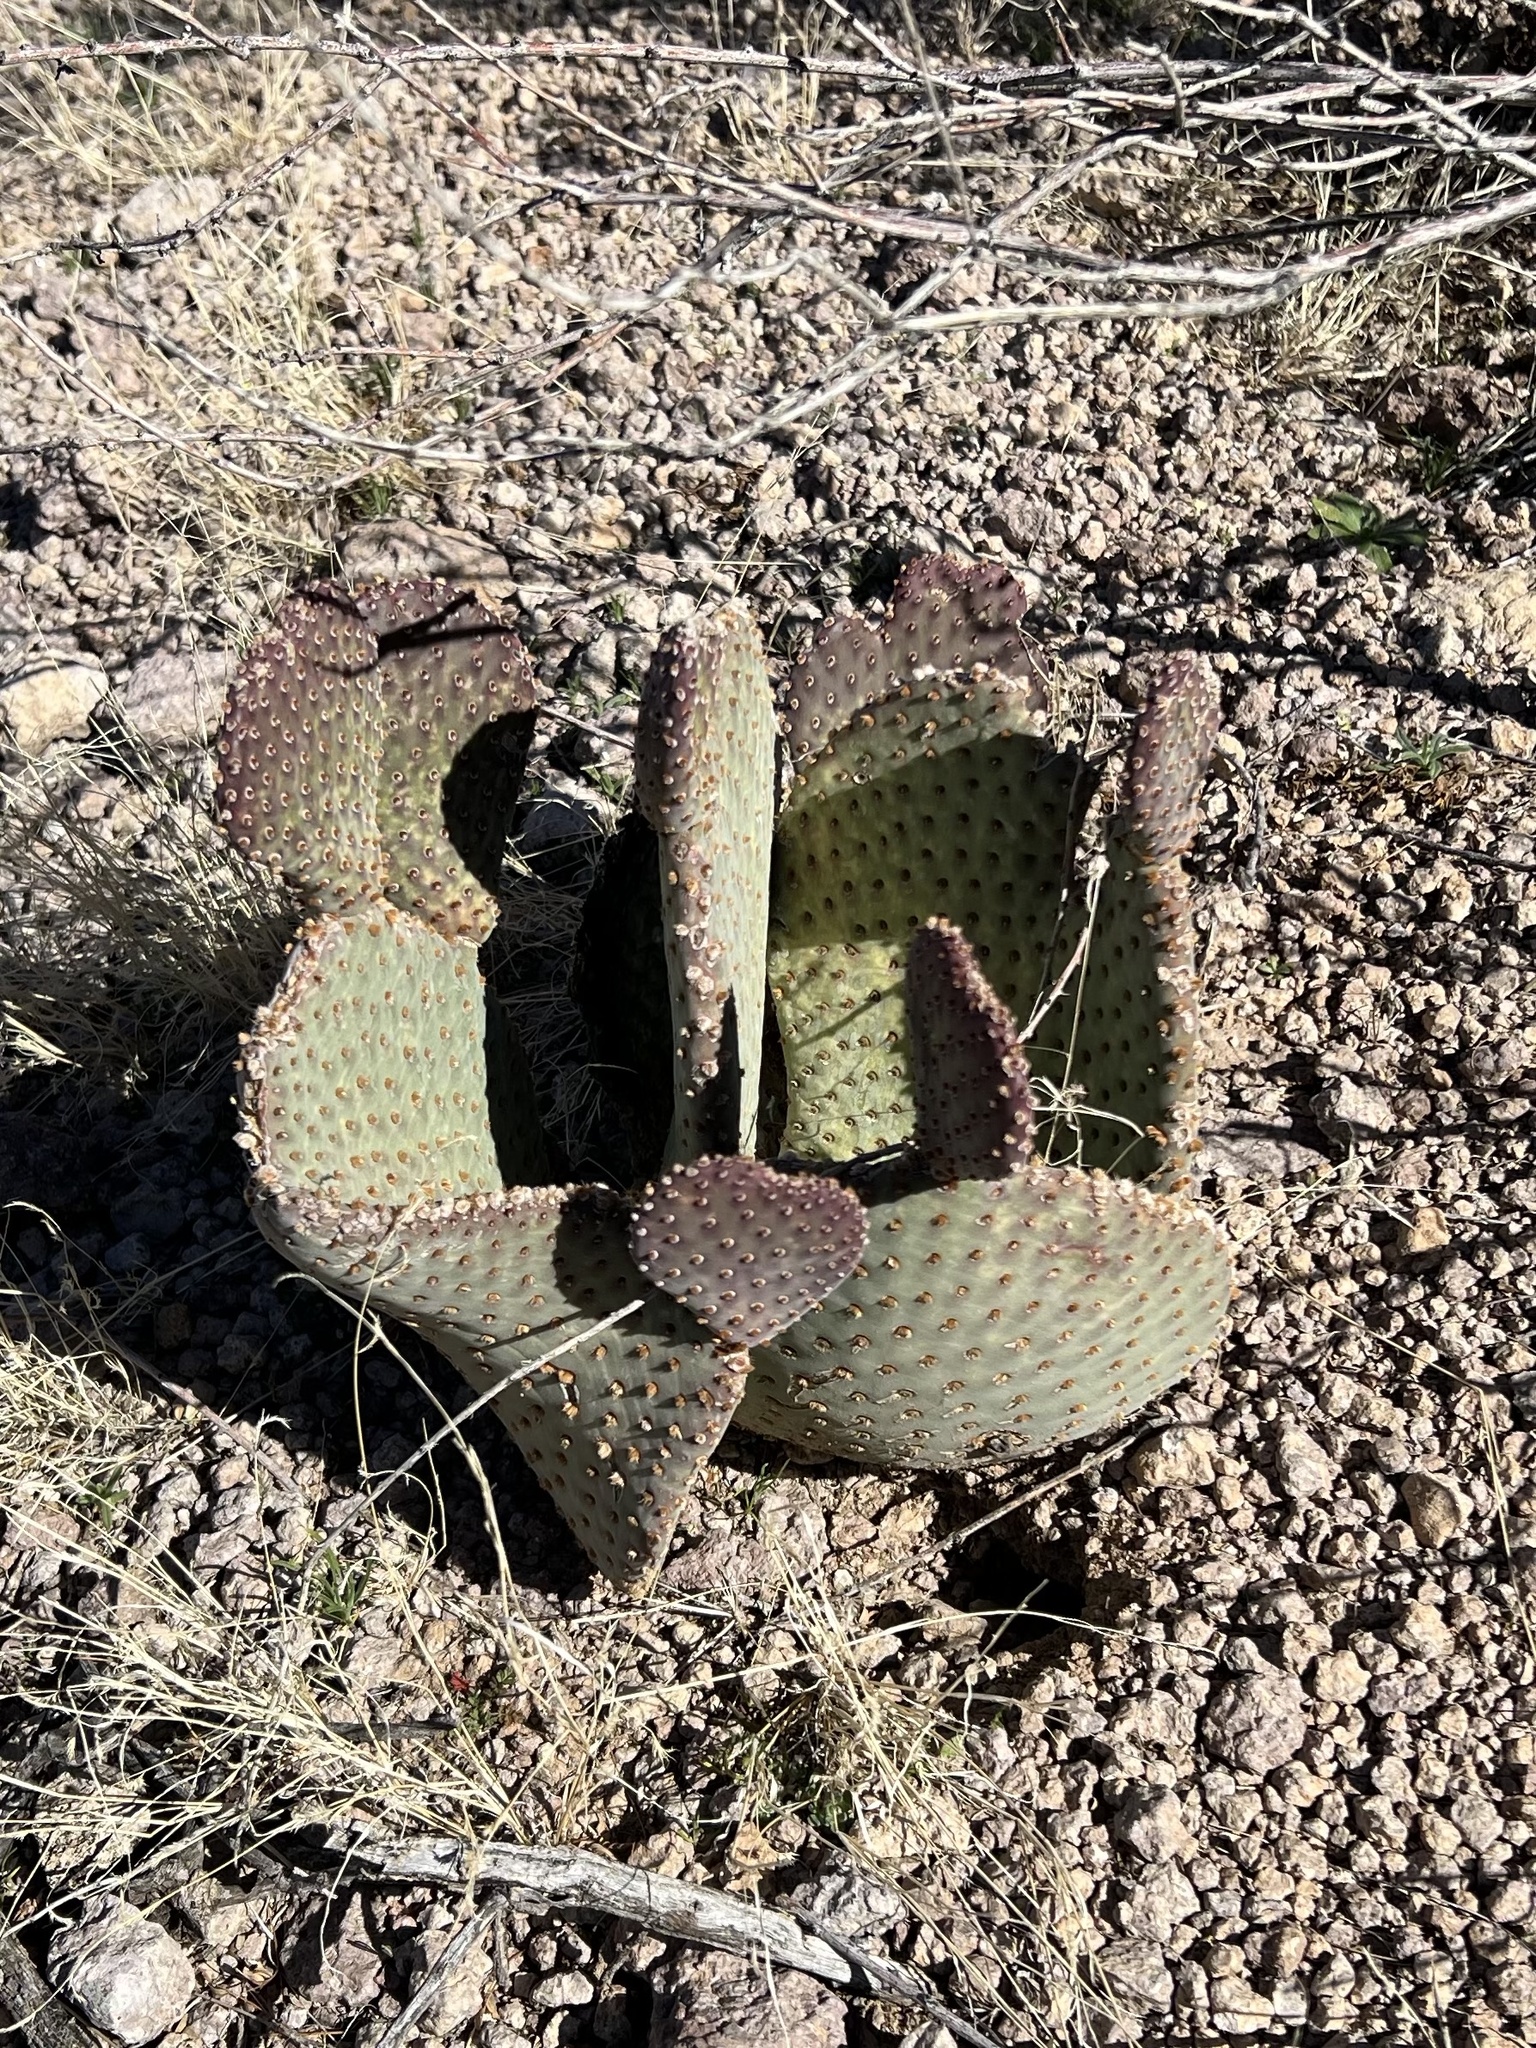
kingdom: Plantae
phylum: Tracheophyta
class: Magnoliopsida
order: Caryophyllales
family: Cactaceae
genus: Opuntia
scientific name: Opuntia basilaris
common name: Beavertail prickly-pear
